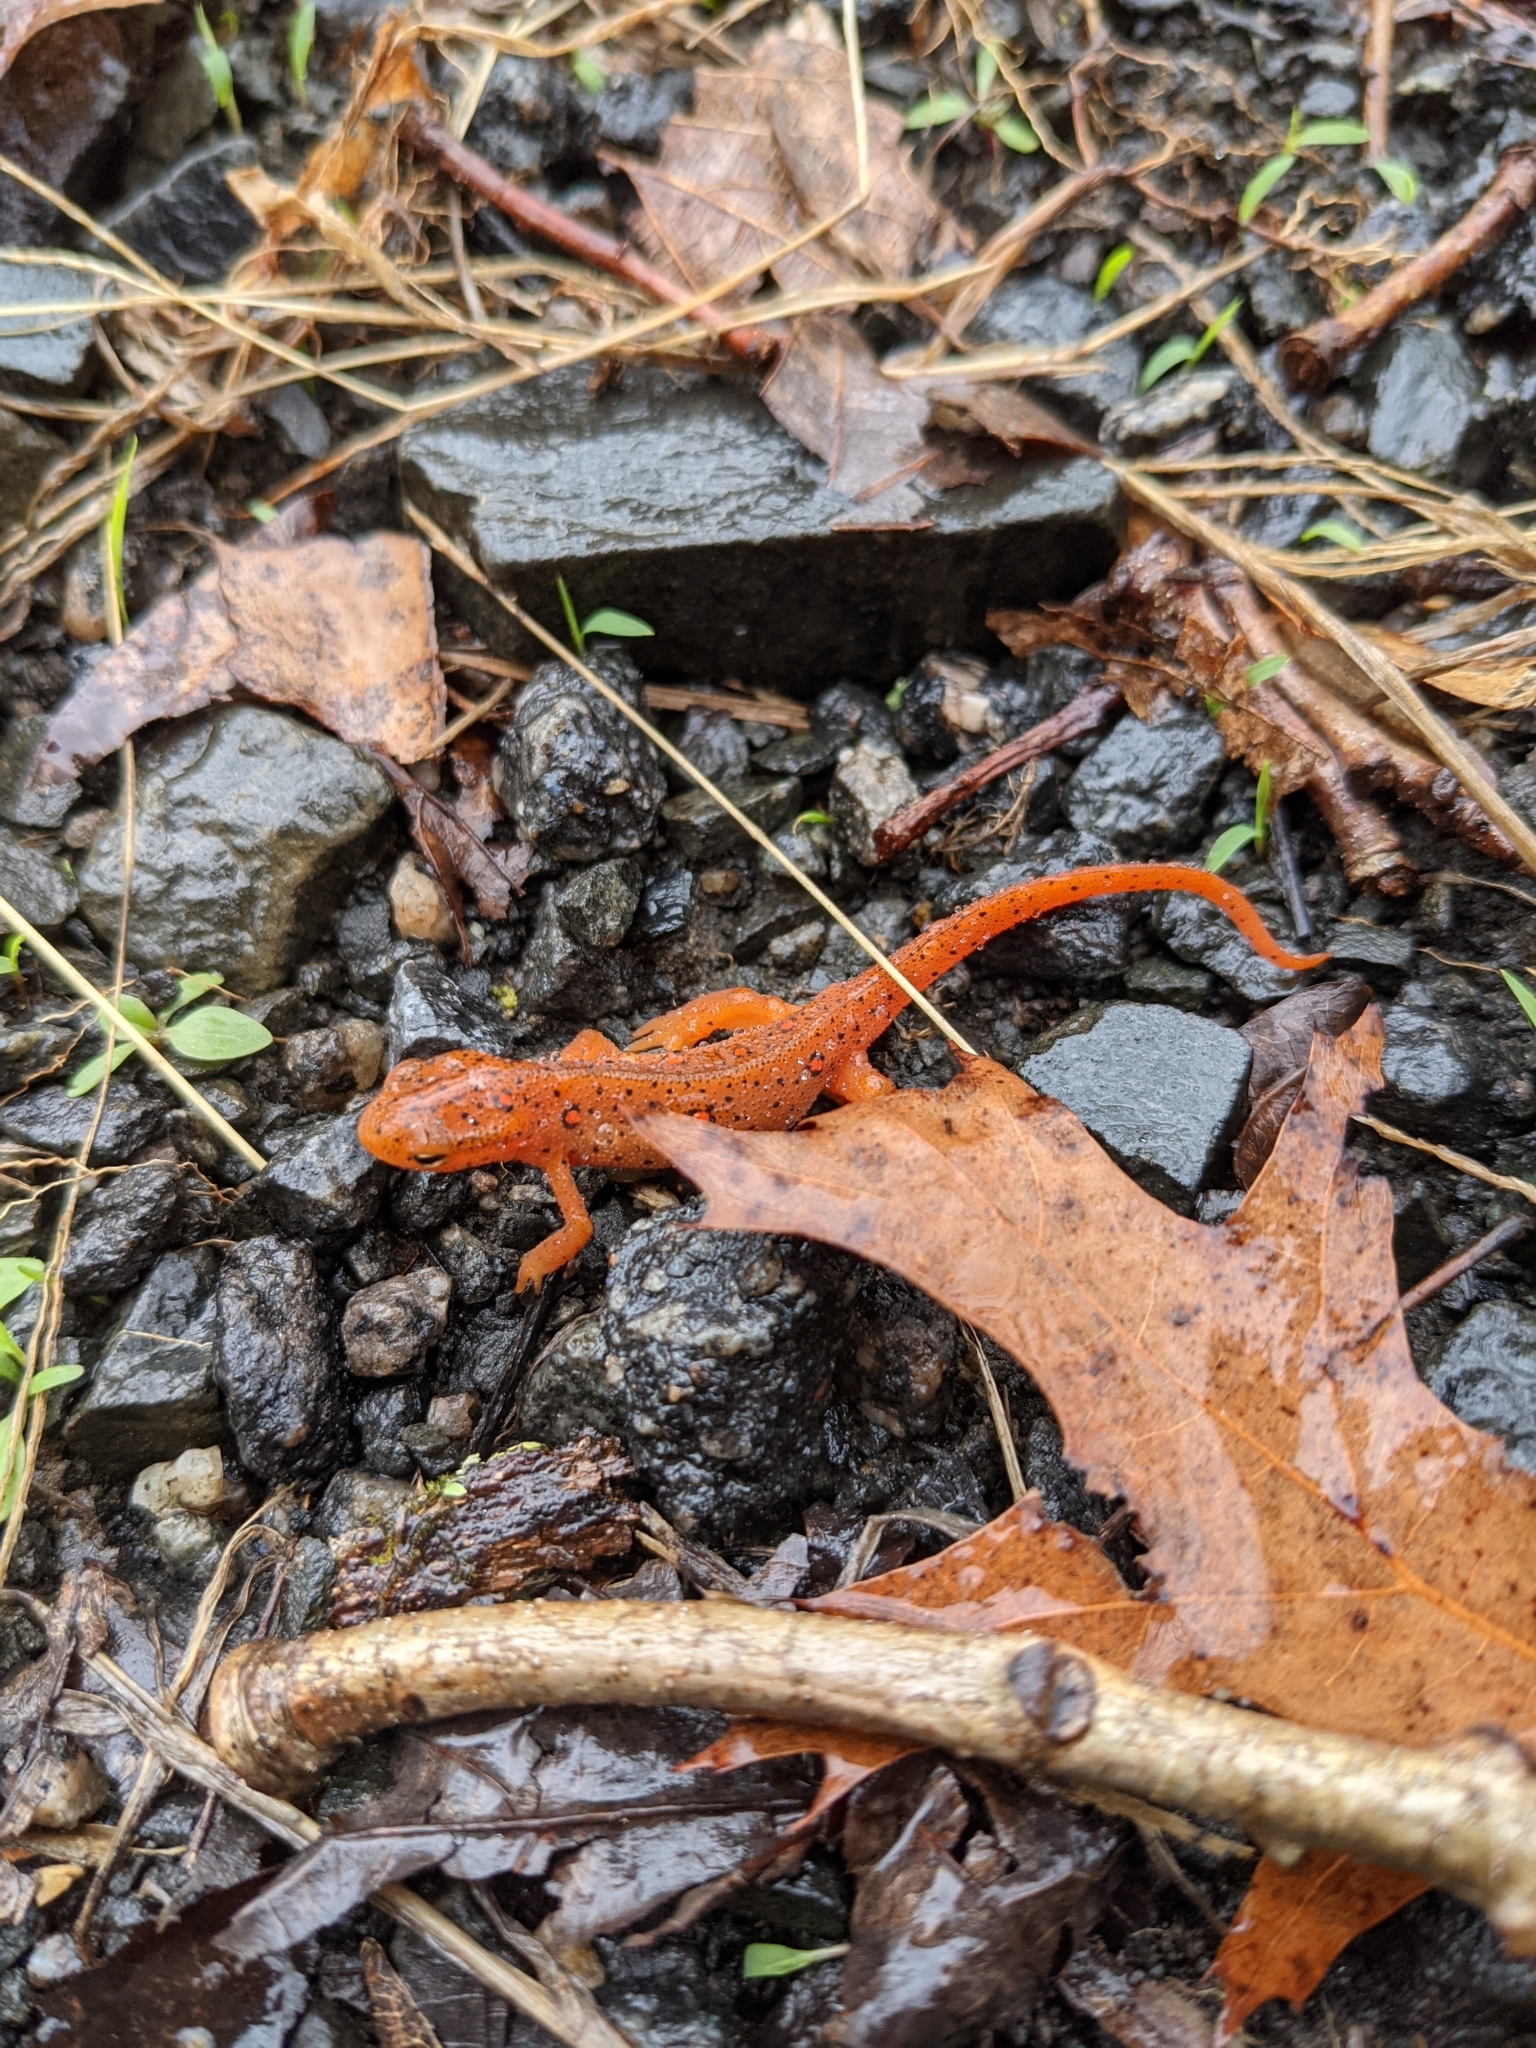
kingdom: Animalia
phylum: Chordata
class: Amphibia
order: Caudata
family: Salamandridae
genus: Notophthalmus
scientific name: Notophthalmus viridescens
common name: Eastern newt
